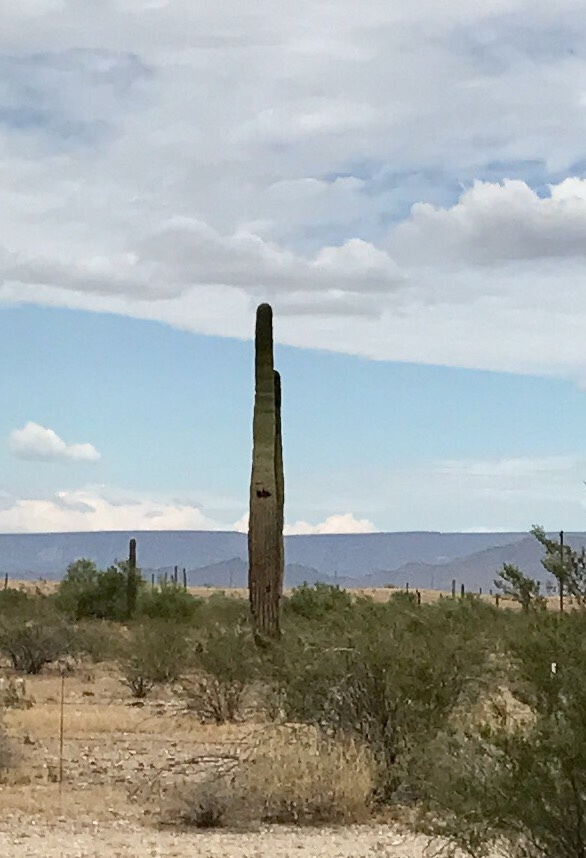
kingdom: Plantae
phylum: Tracheophyta
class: Magnoliopsida
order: Caryophyllales
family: Cactaceae
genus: Carnegiea
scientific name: Carnegiea gigantea
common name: Saguaro
